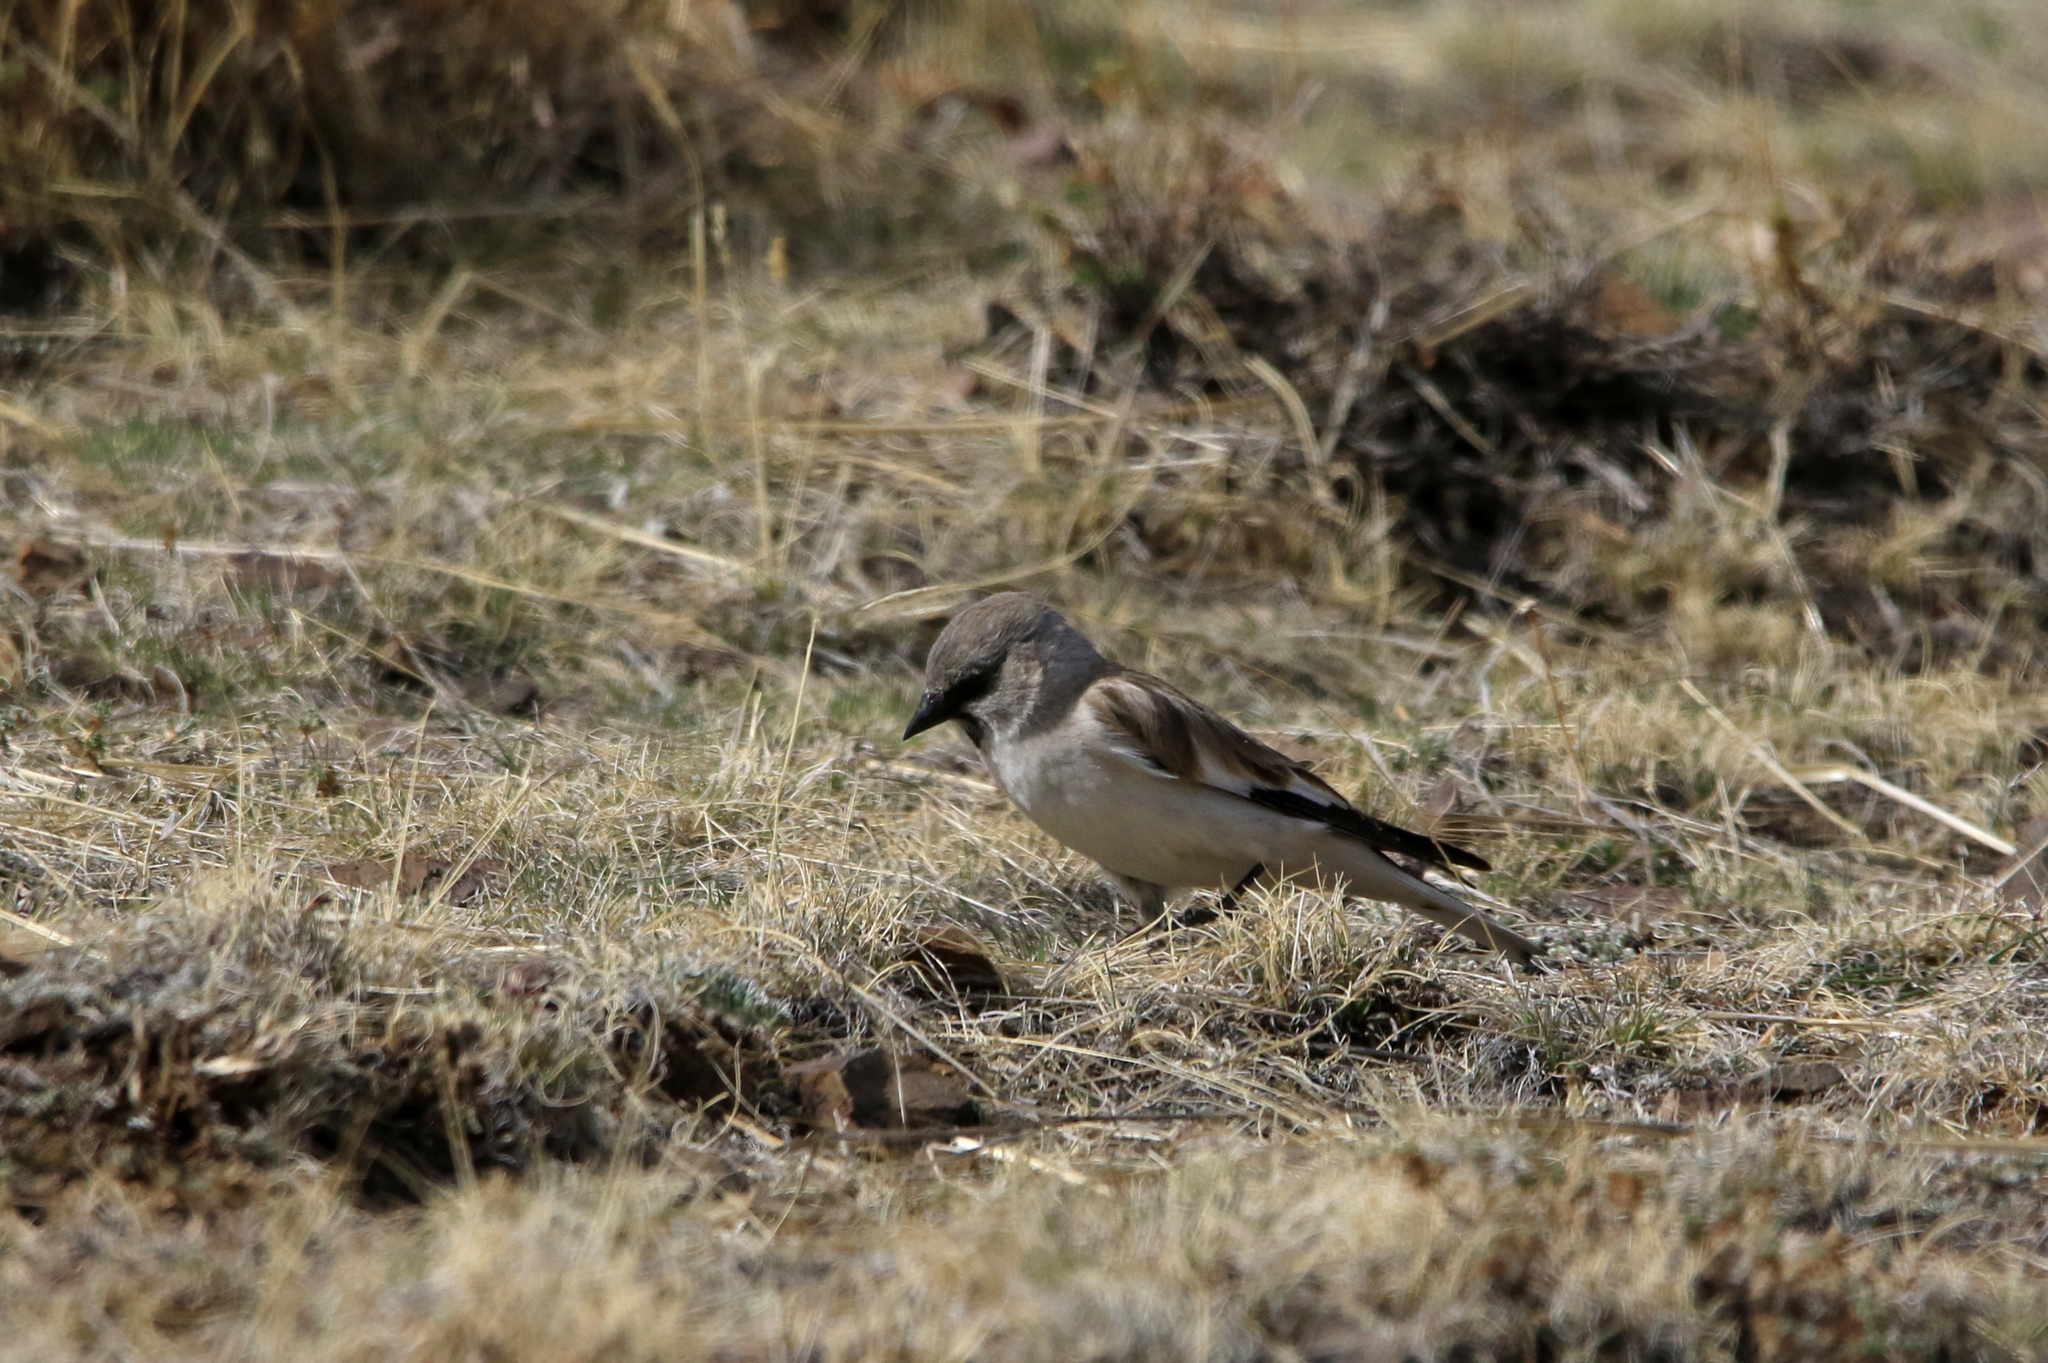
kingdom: Animalia
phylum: Chordata
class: Aves
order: Passeriformes
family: Passeridae
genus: Montifringilla
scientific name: Montifringilla nivalis
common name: White-winged snowfinch
